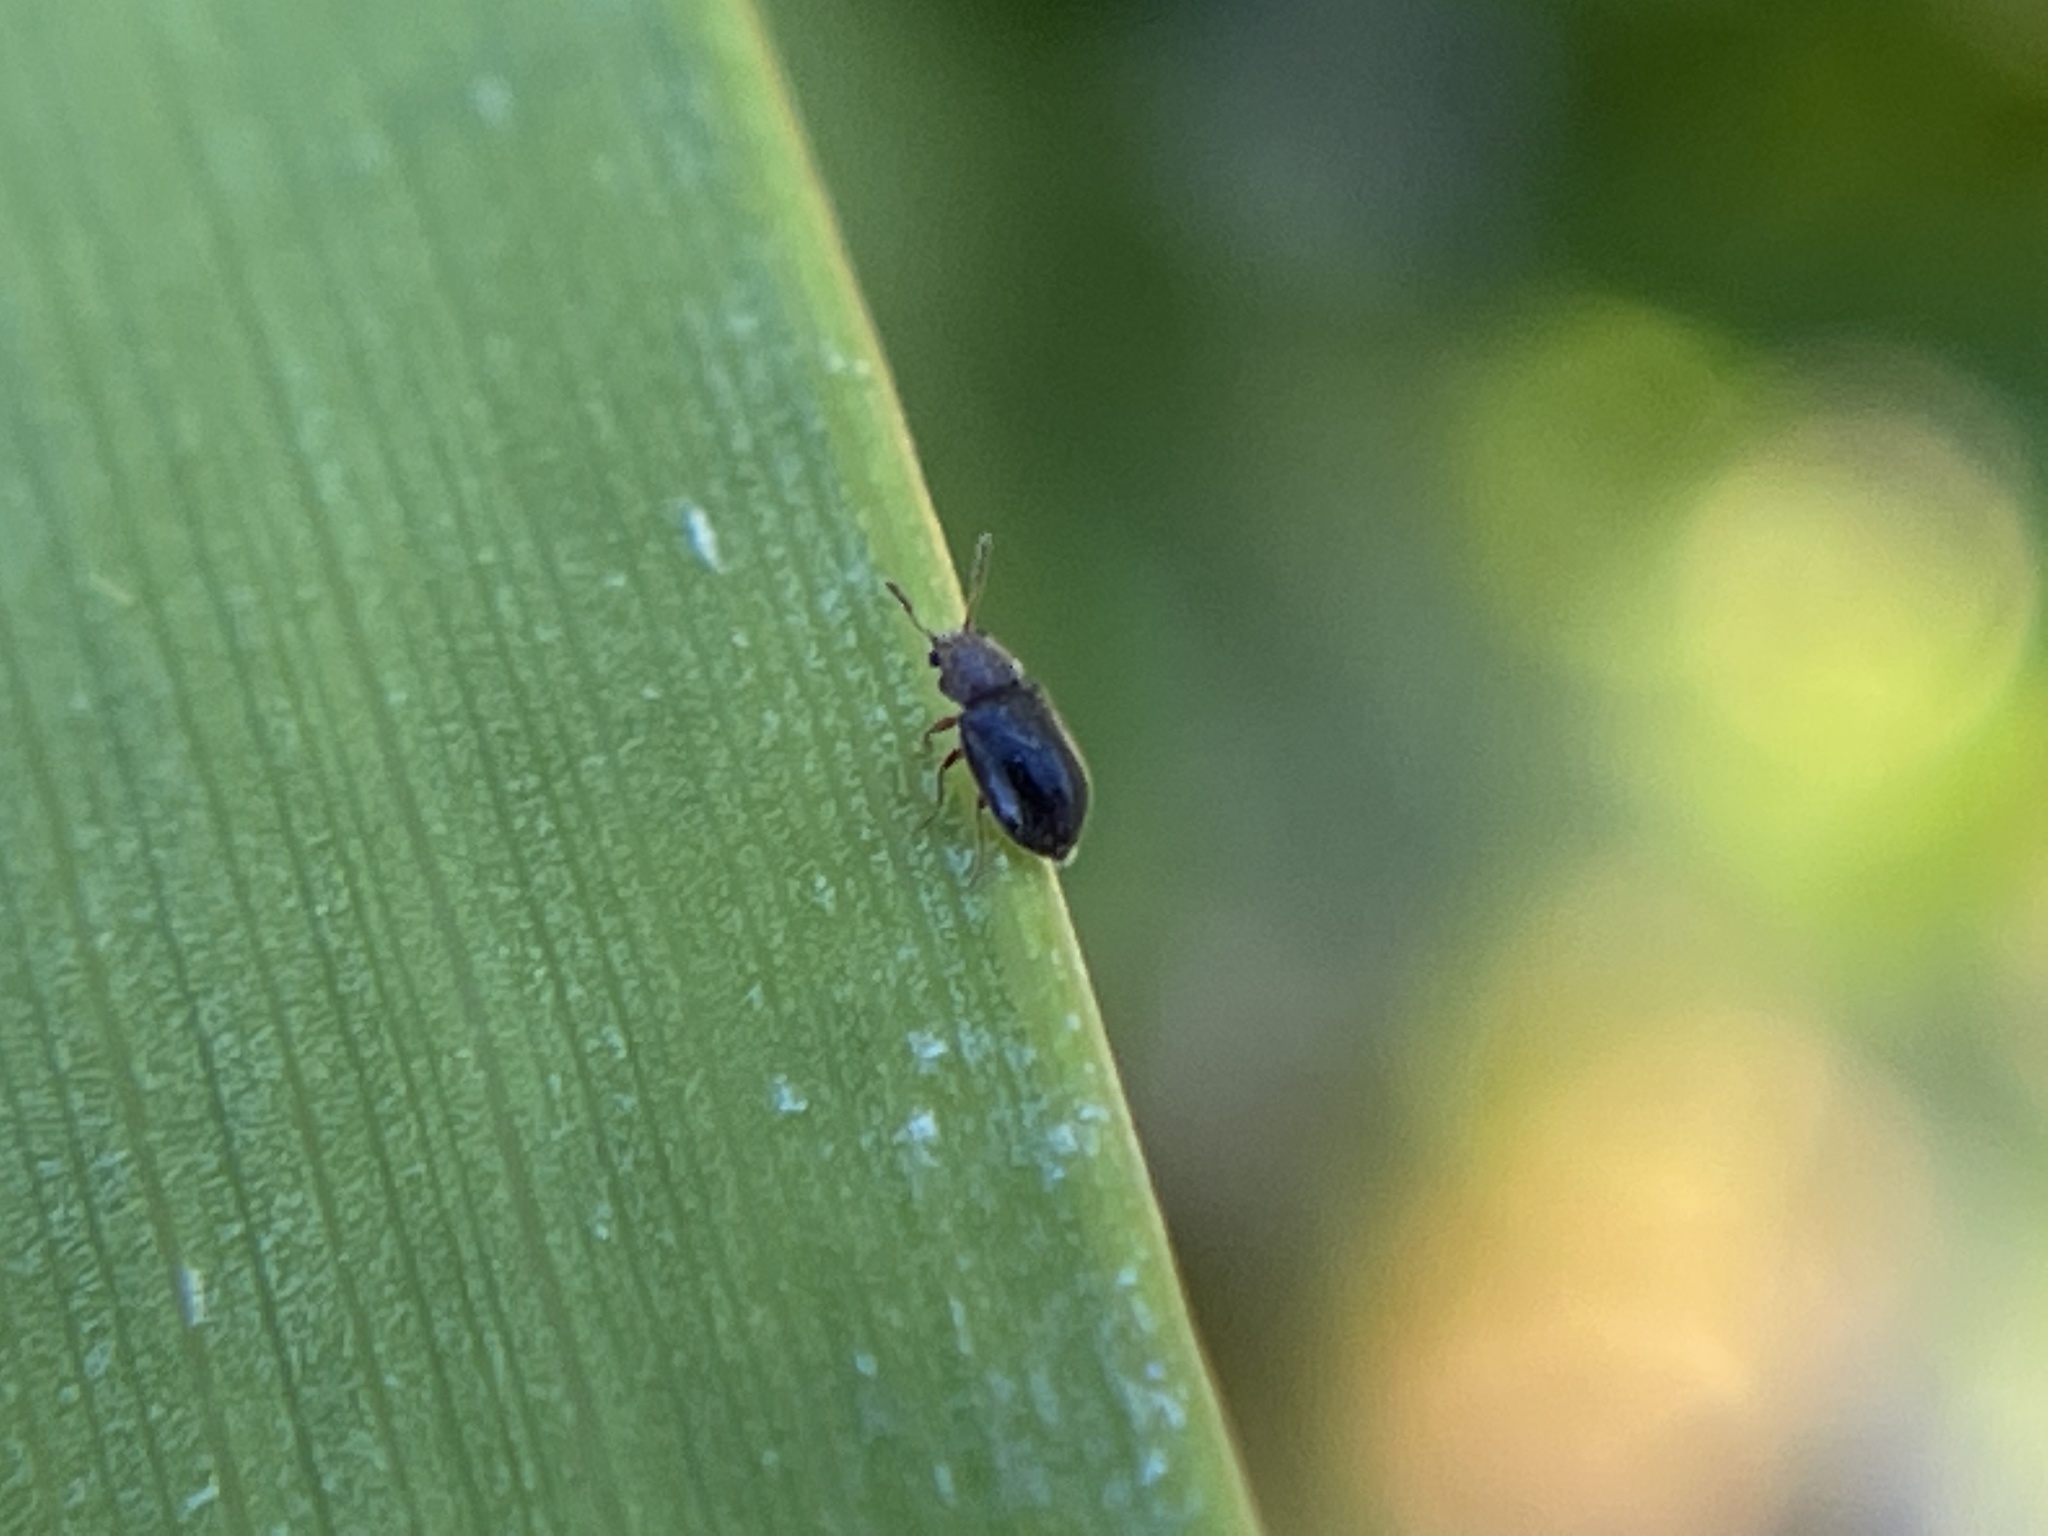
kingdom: Animalia
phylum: Arthropoda
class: Insecta
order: Coleoptera
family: Anobiidae
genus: Ozognathus
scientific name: Ozognathus cornutus
